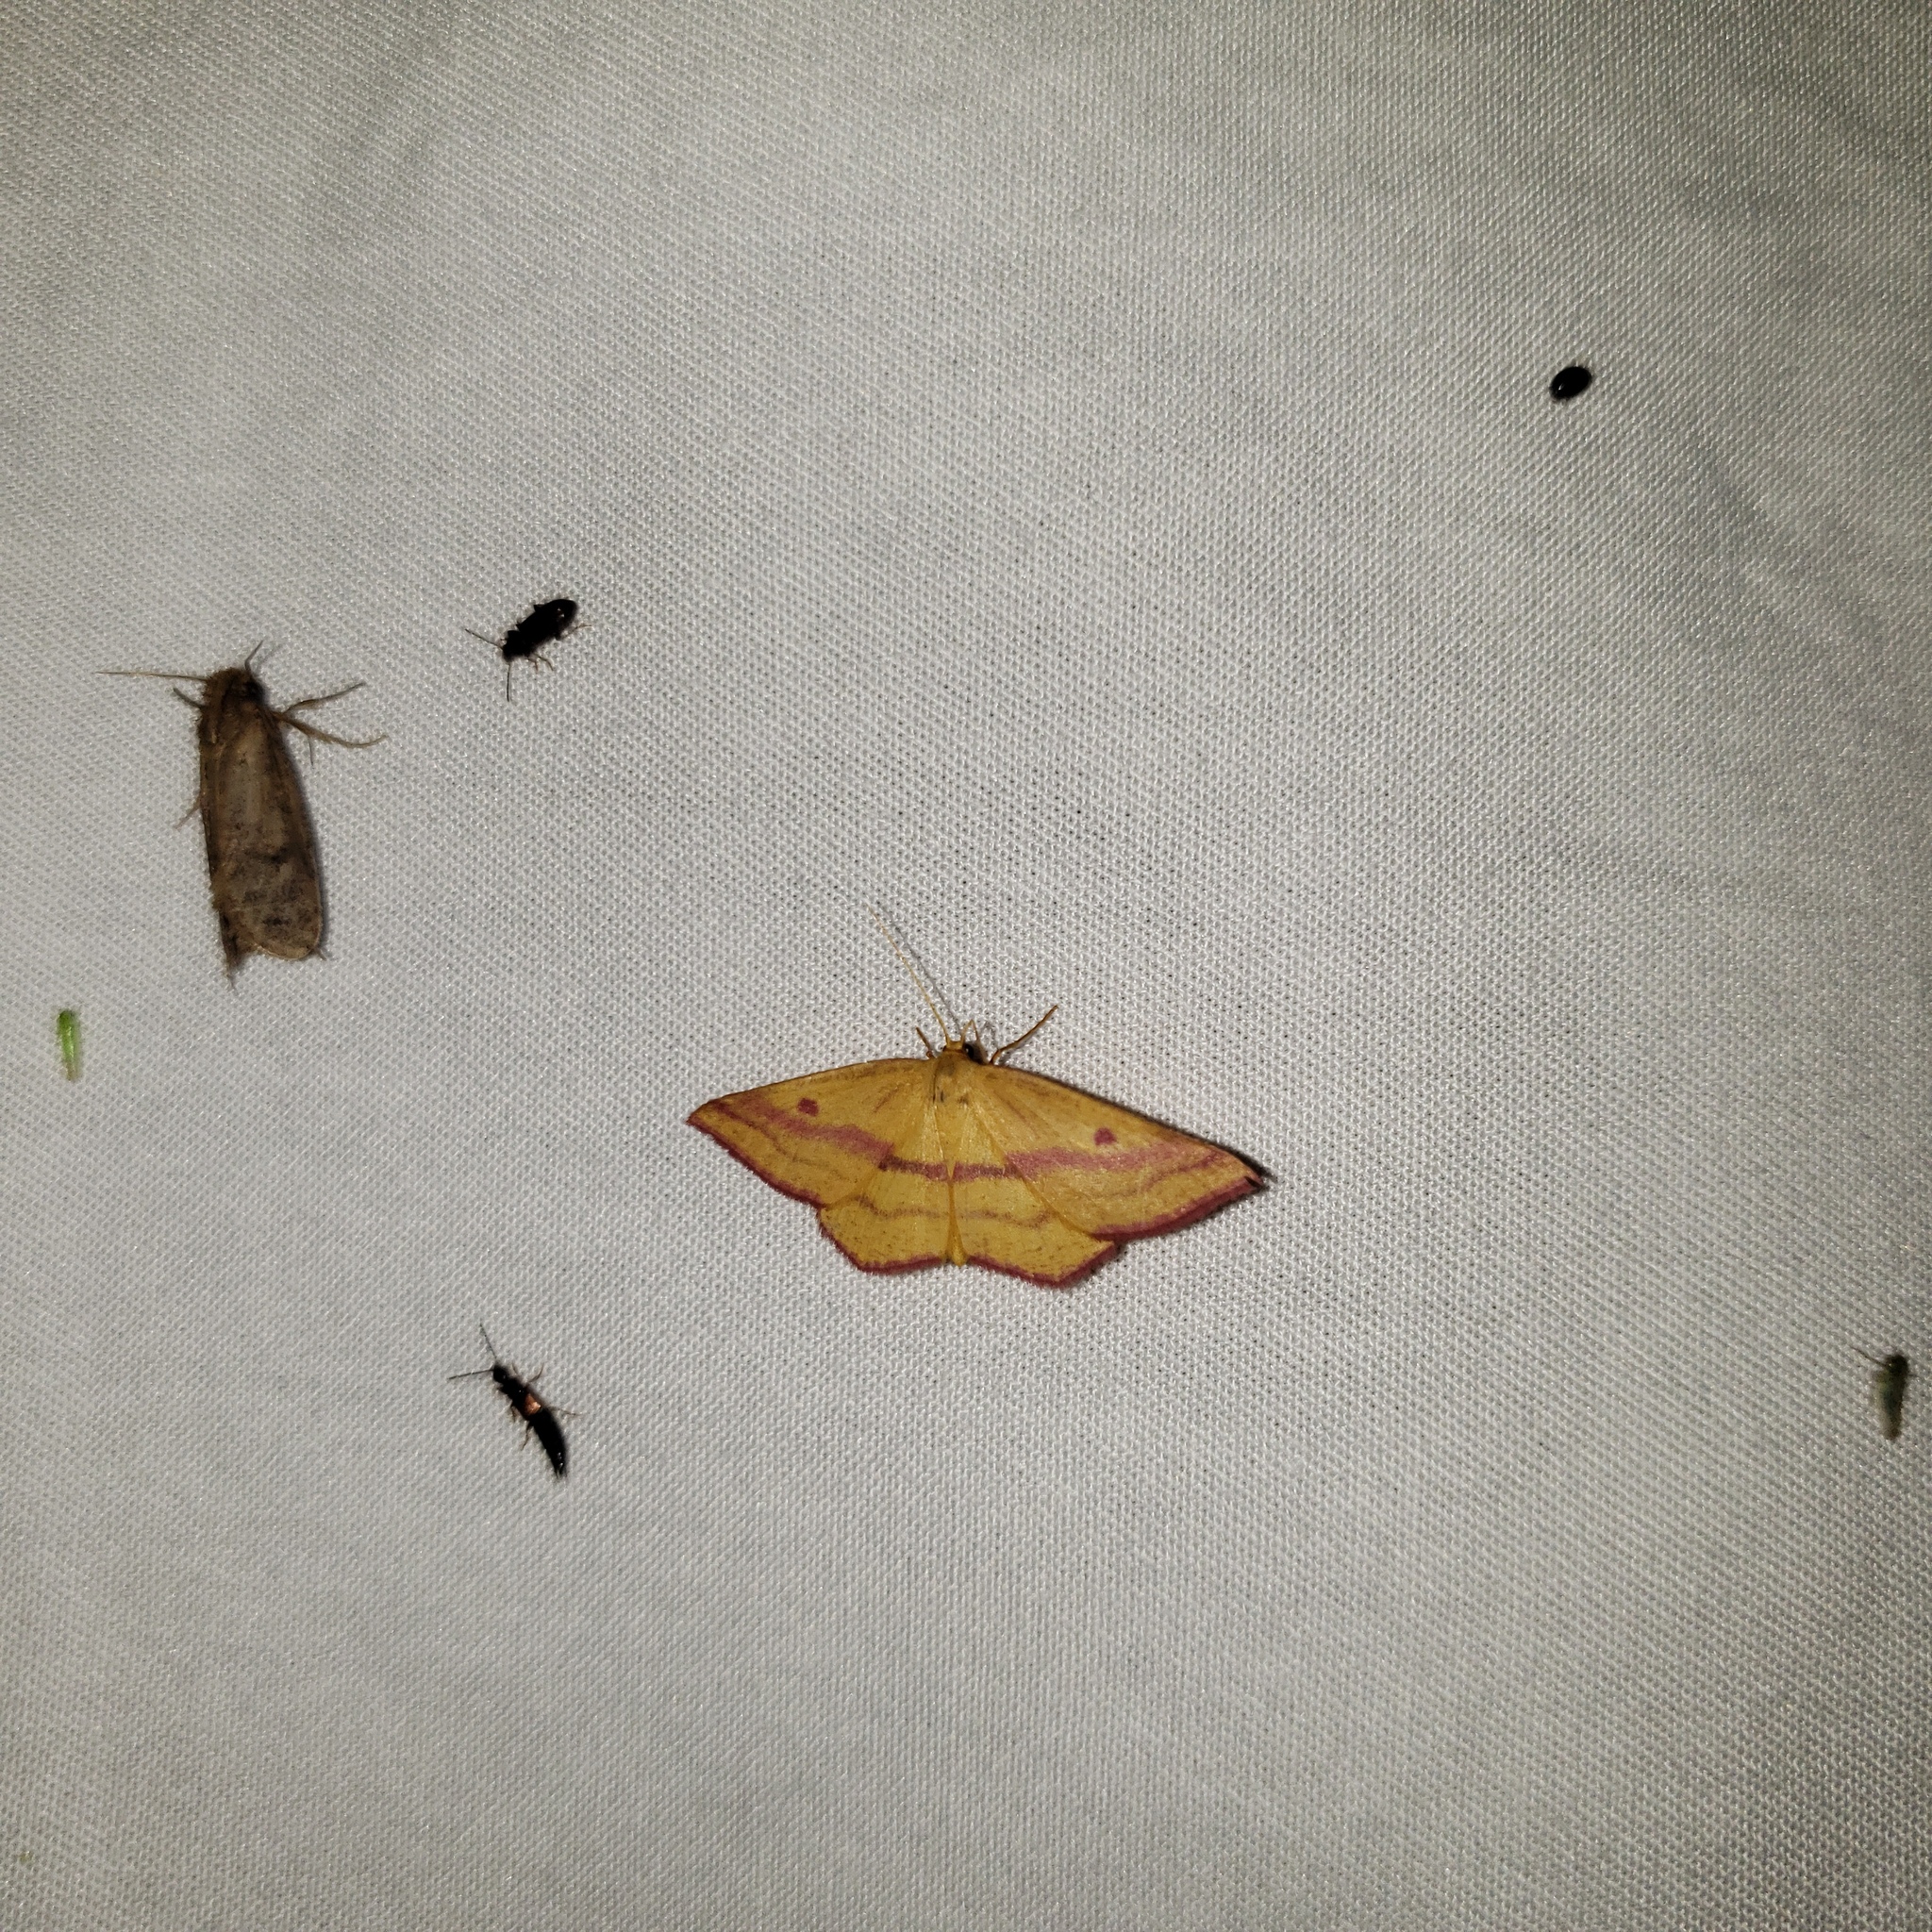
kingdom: Animalia
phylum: Arthropoda
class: Insecta
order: Lepidoptera
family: Geometridae
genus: Haematopis
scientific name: Haematopis grataria
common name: Chickweed geometer
